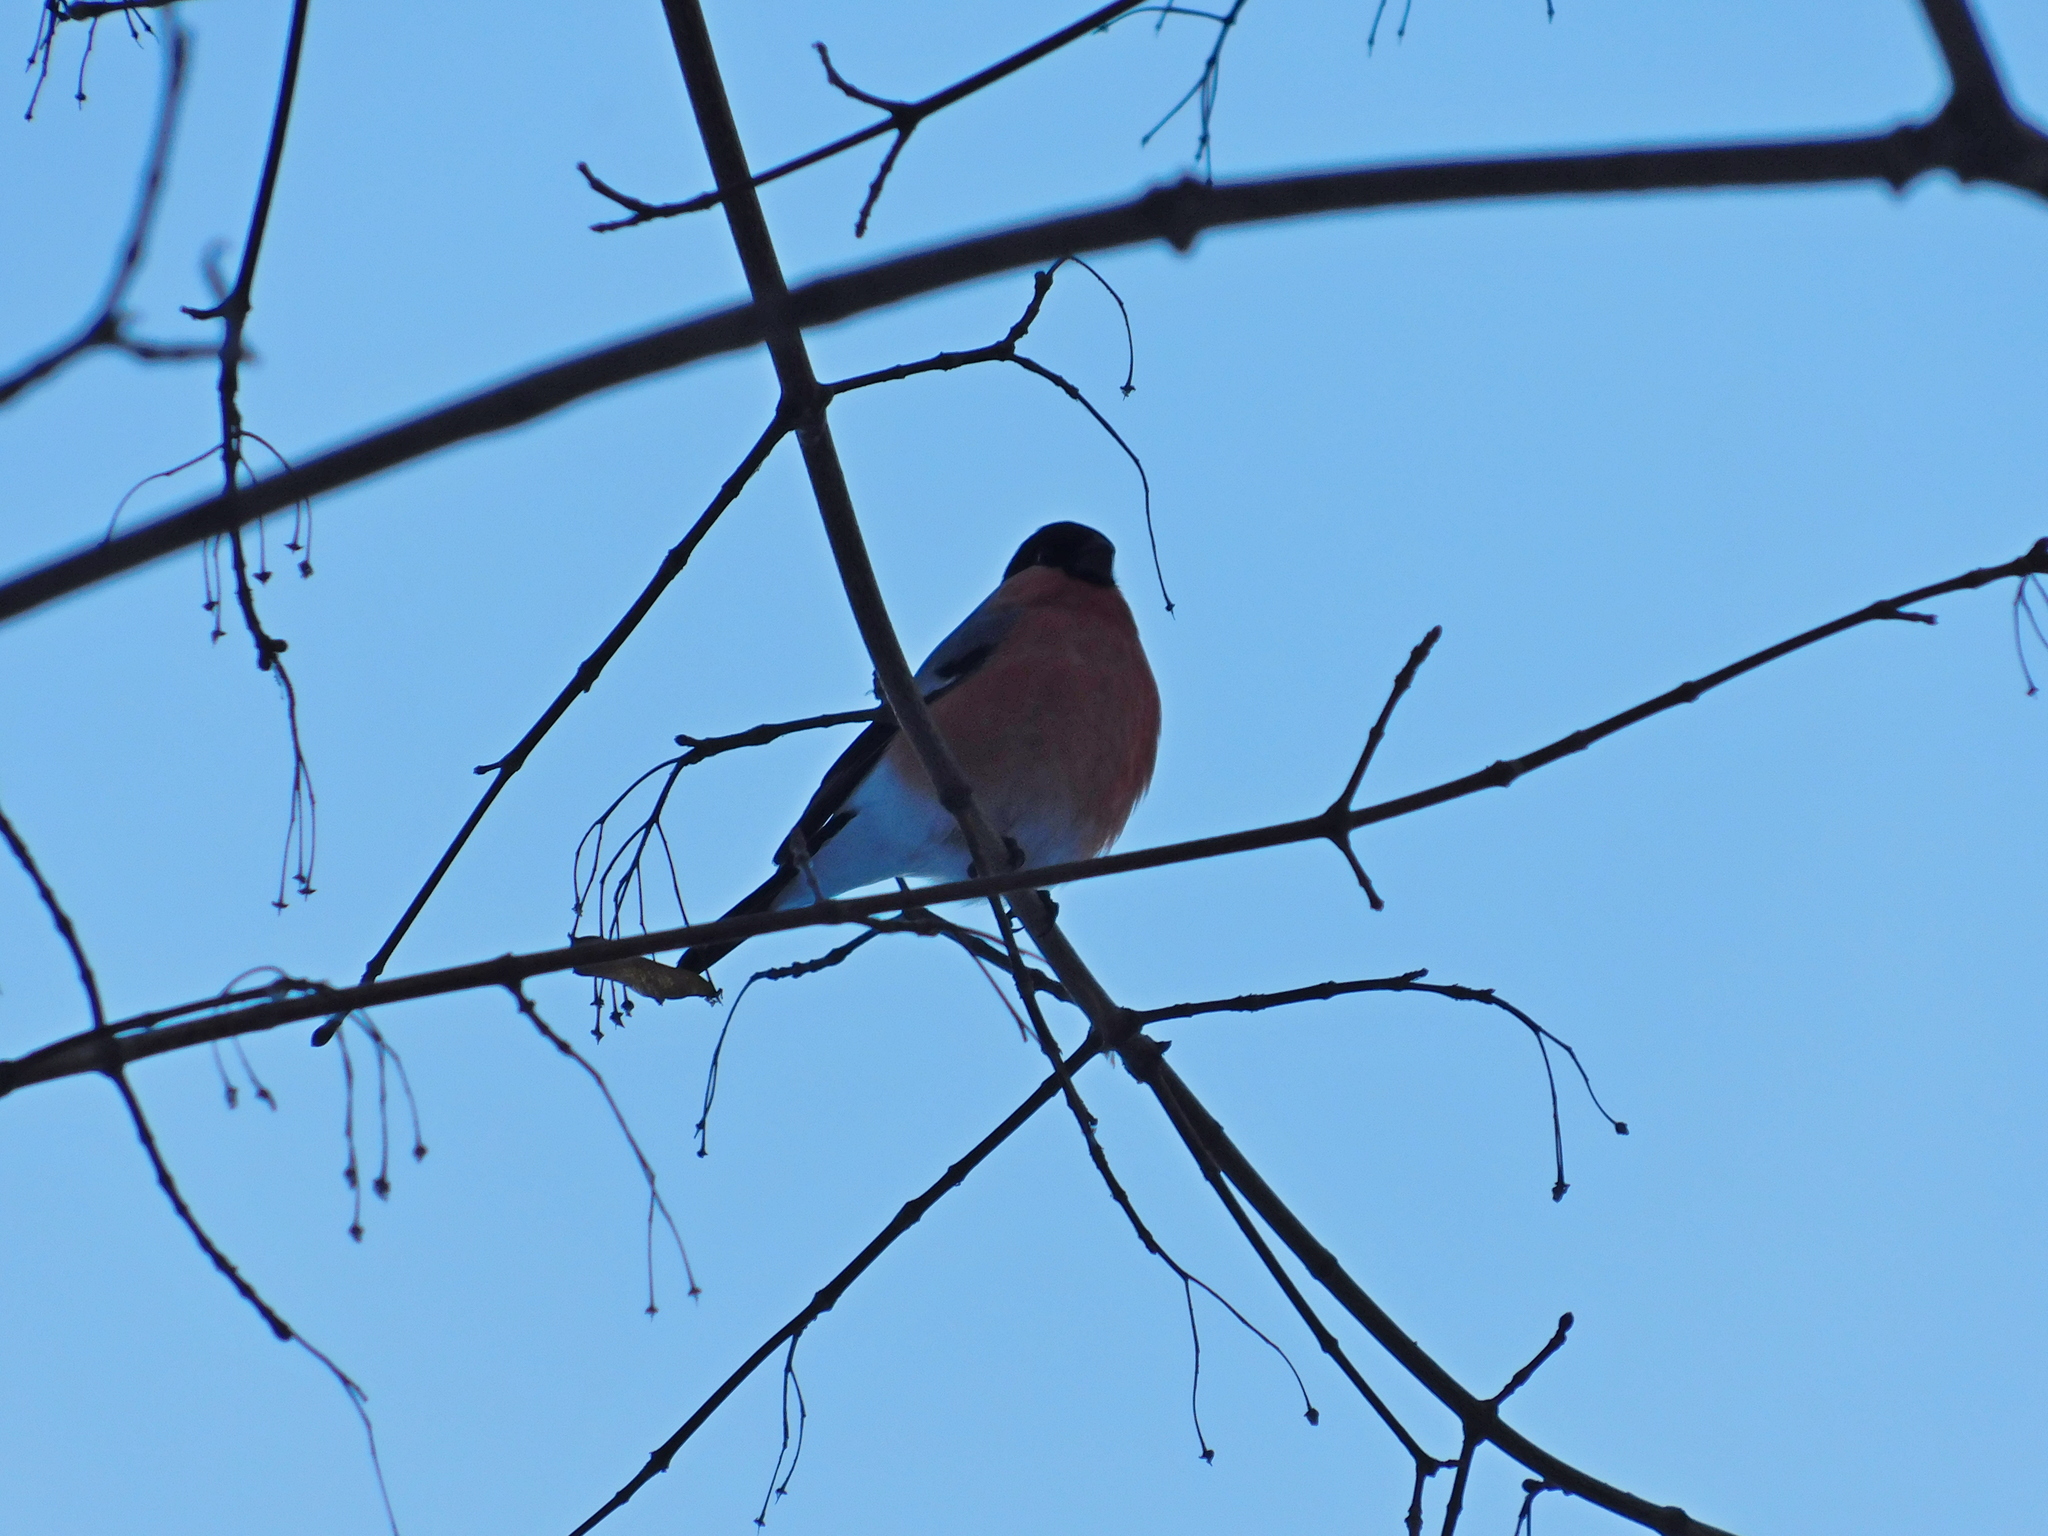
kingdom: Animalia
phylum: Chordata
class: Aves
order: Passeriformes
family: Fringillidae
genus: Pyrrhula
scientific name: Pyrrhula pyrrhula
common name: Eurasian bullfinch
